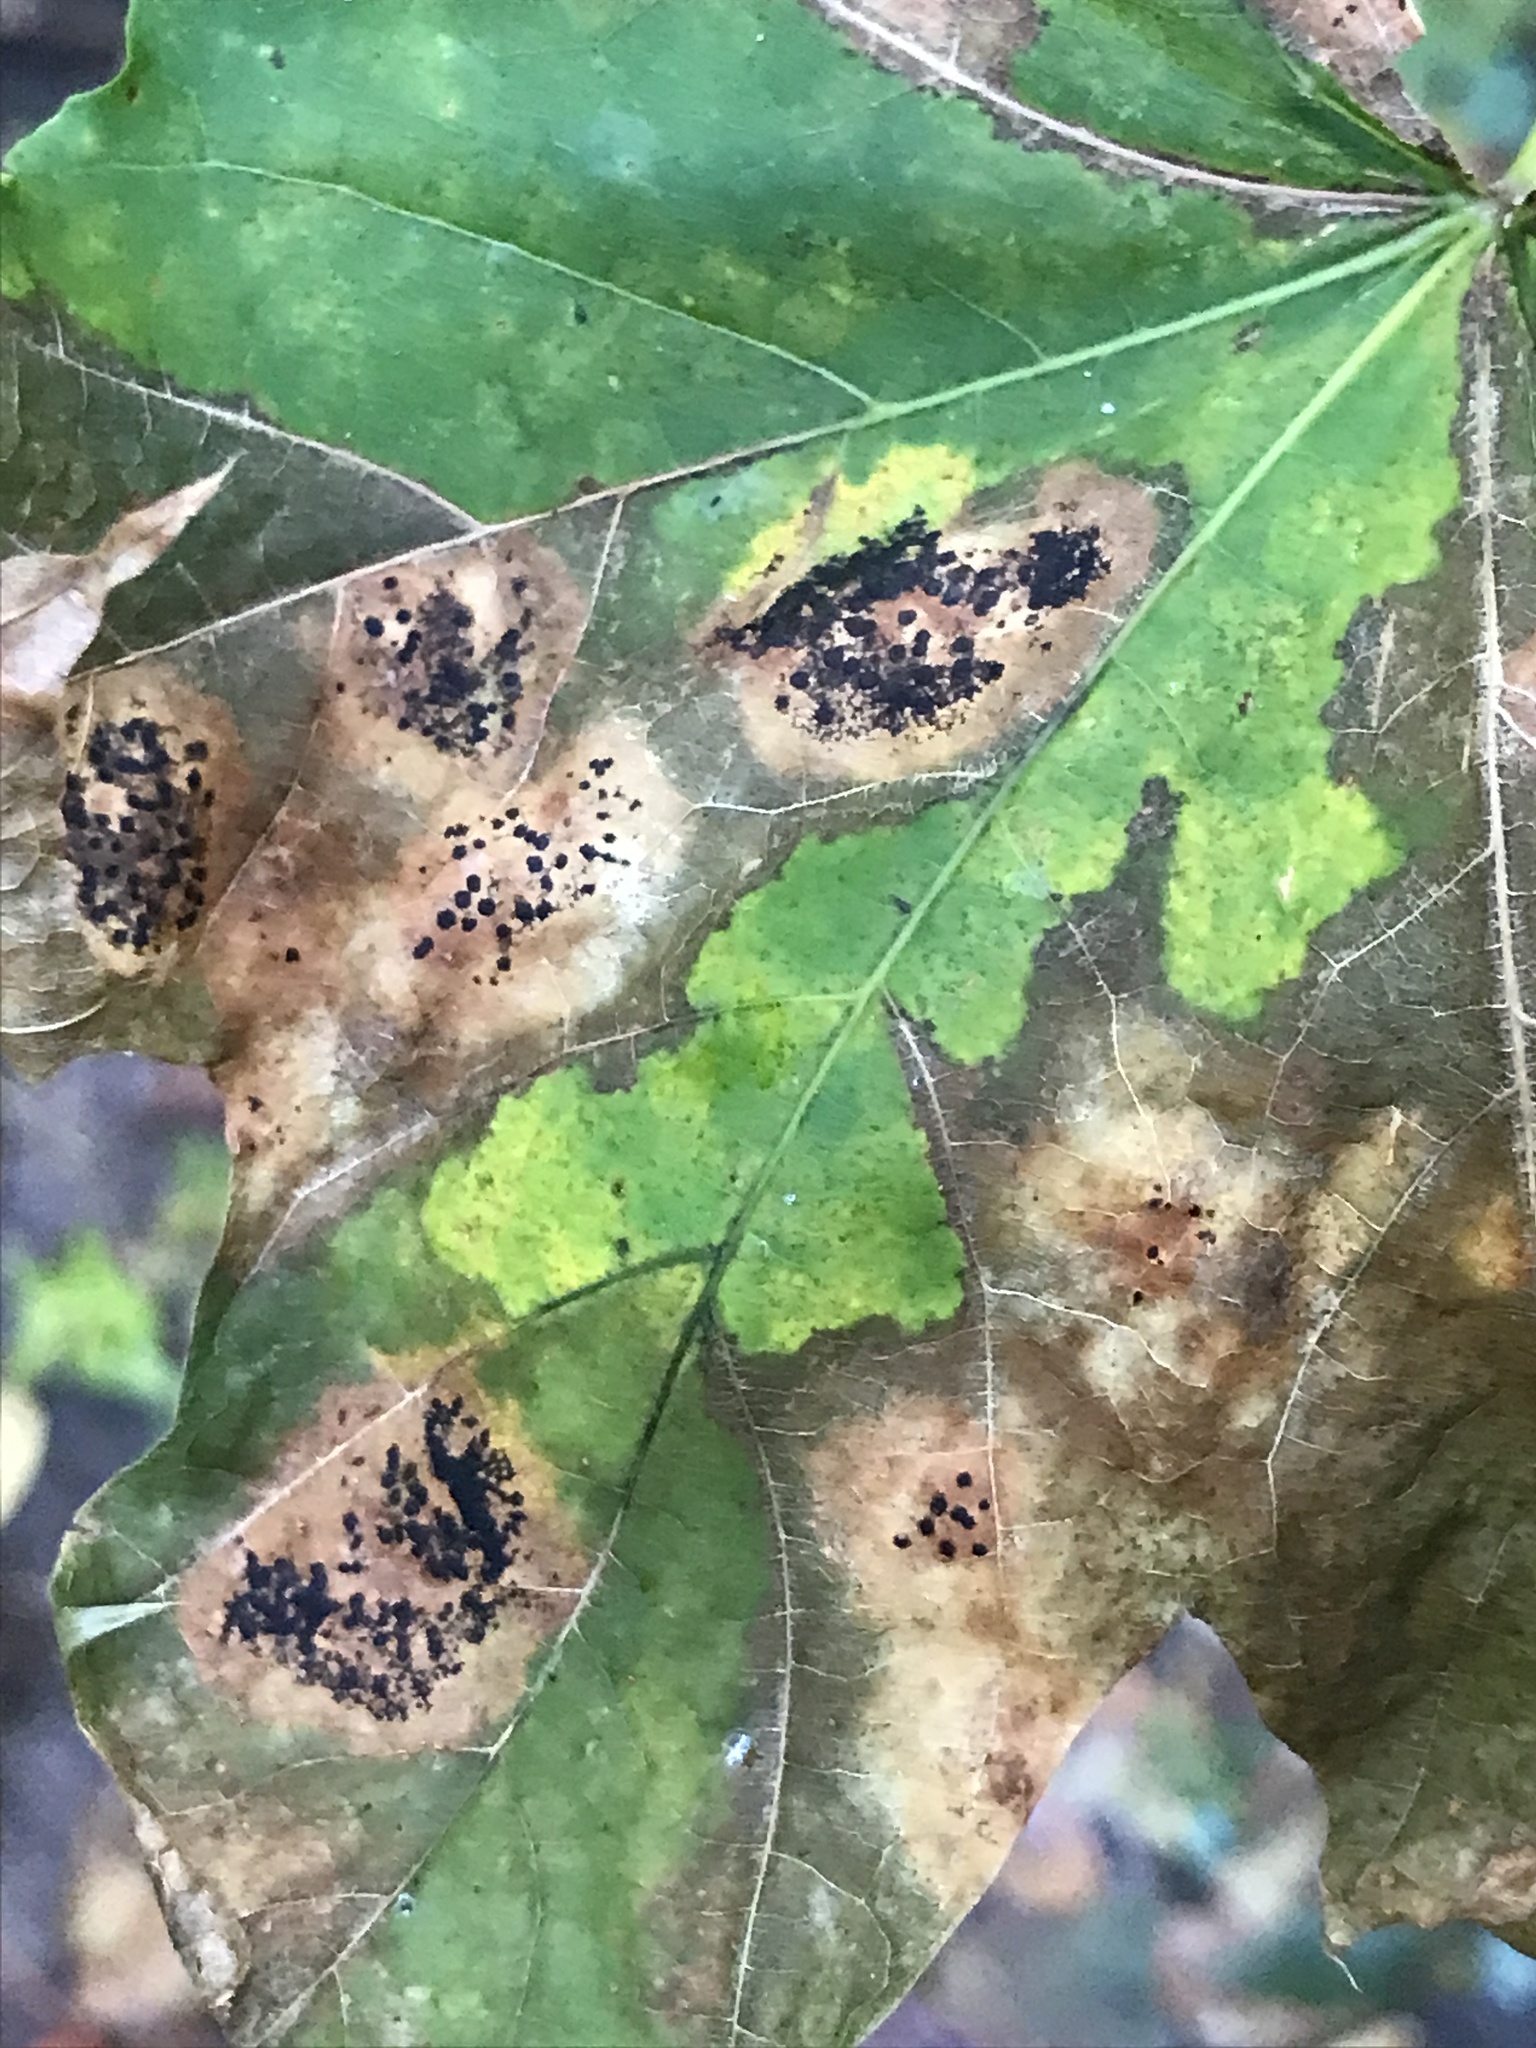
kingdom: Fungi
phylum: Ascomycota
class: Leotiomycetes
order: Rhytismatales
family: Rhytismataceae
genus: Rhytisma
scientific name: Rhytisma acerinum
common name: European tar spot
